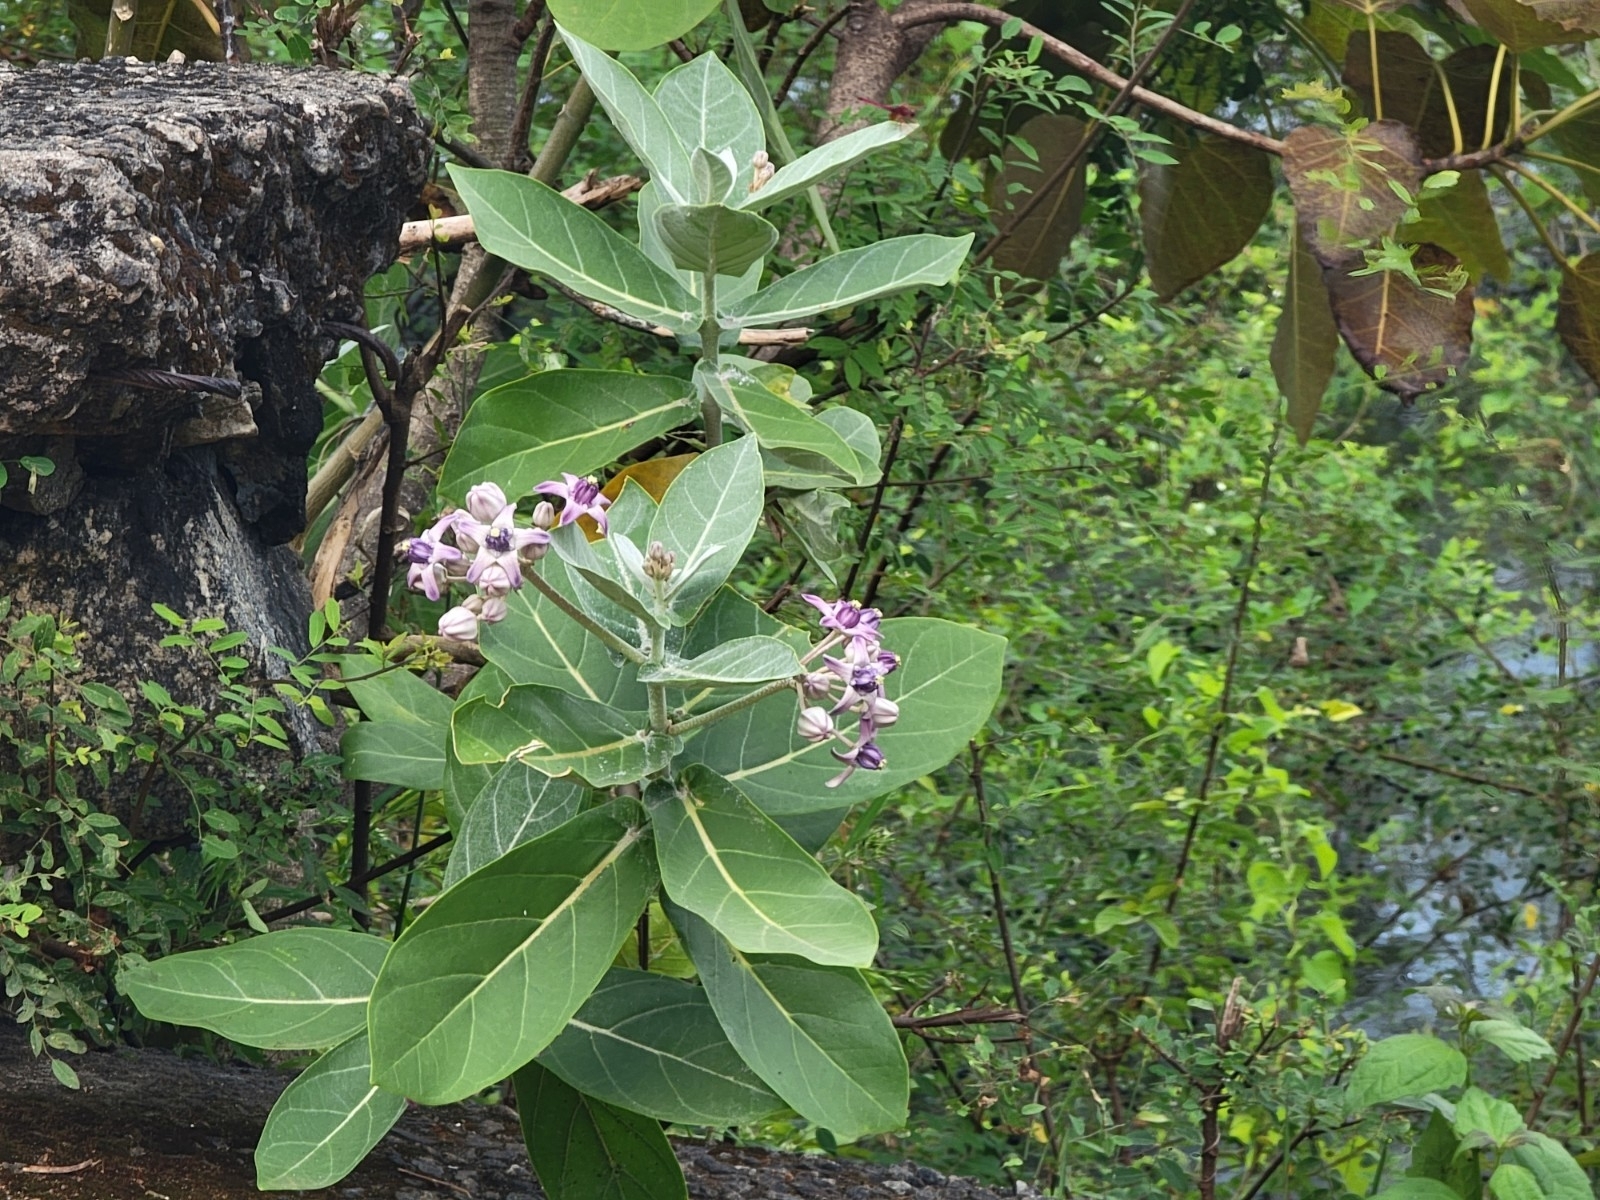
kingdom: Plantae
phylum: Tracheophyta
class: Magnoliopsida
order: Gentianales
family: Apocynaceae
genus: Calotropis
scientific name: Calotropis gigantea
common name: Crown flower
